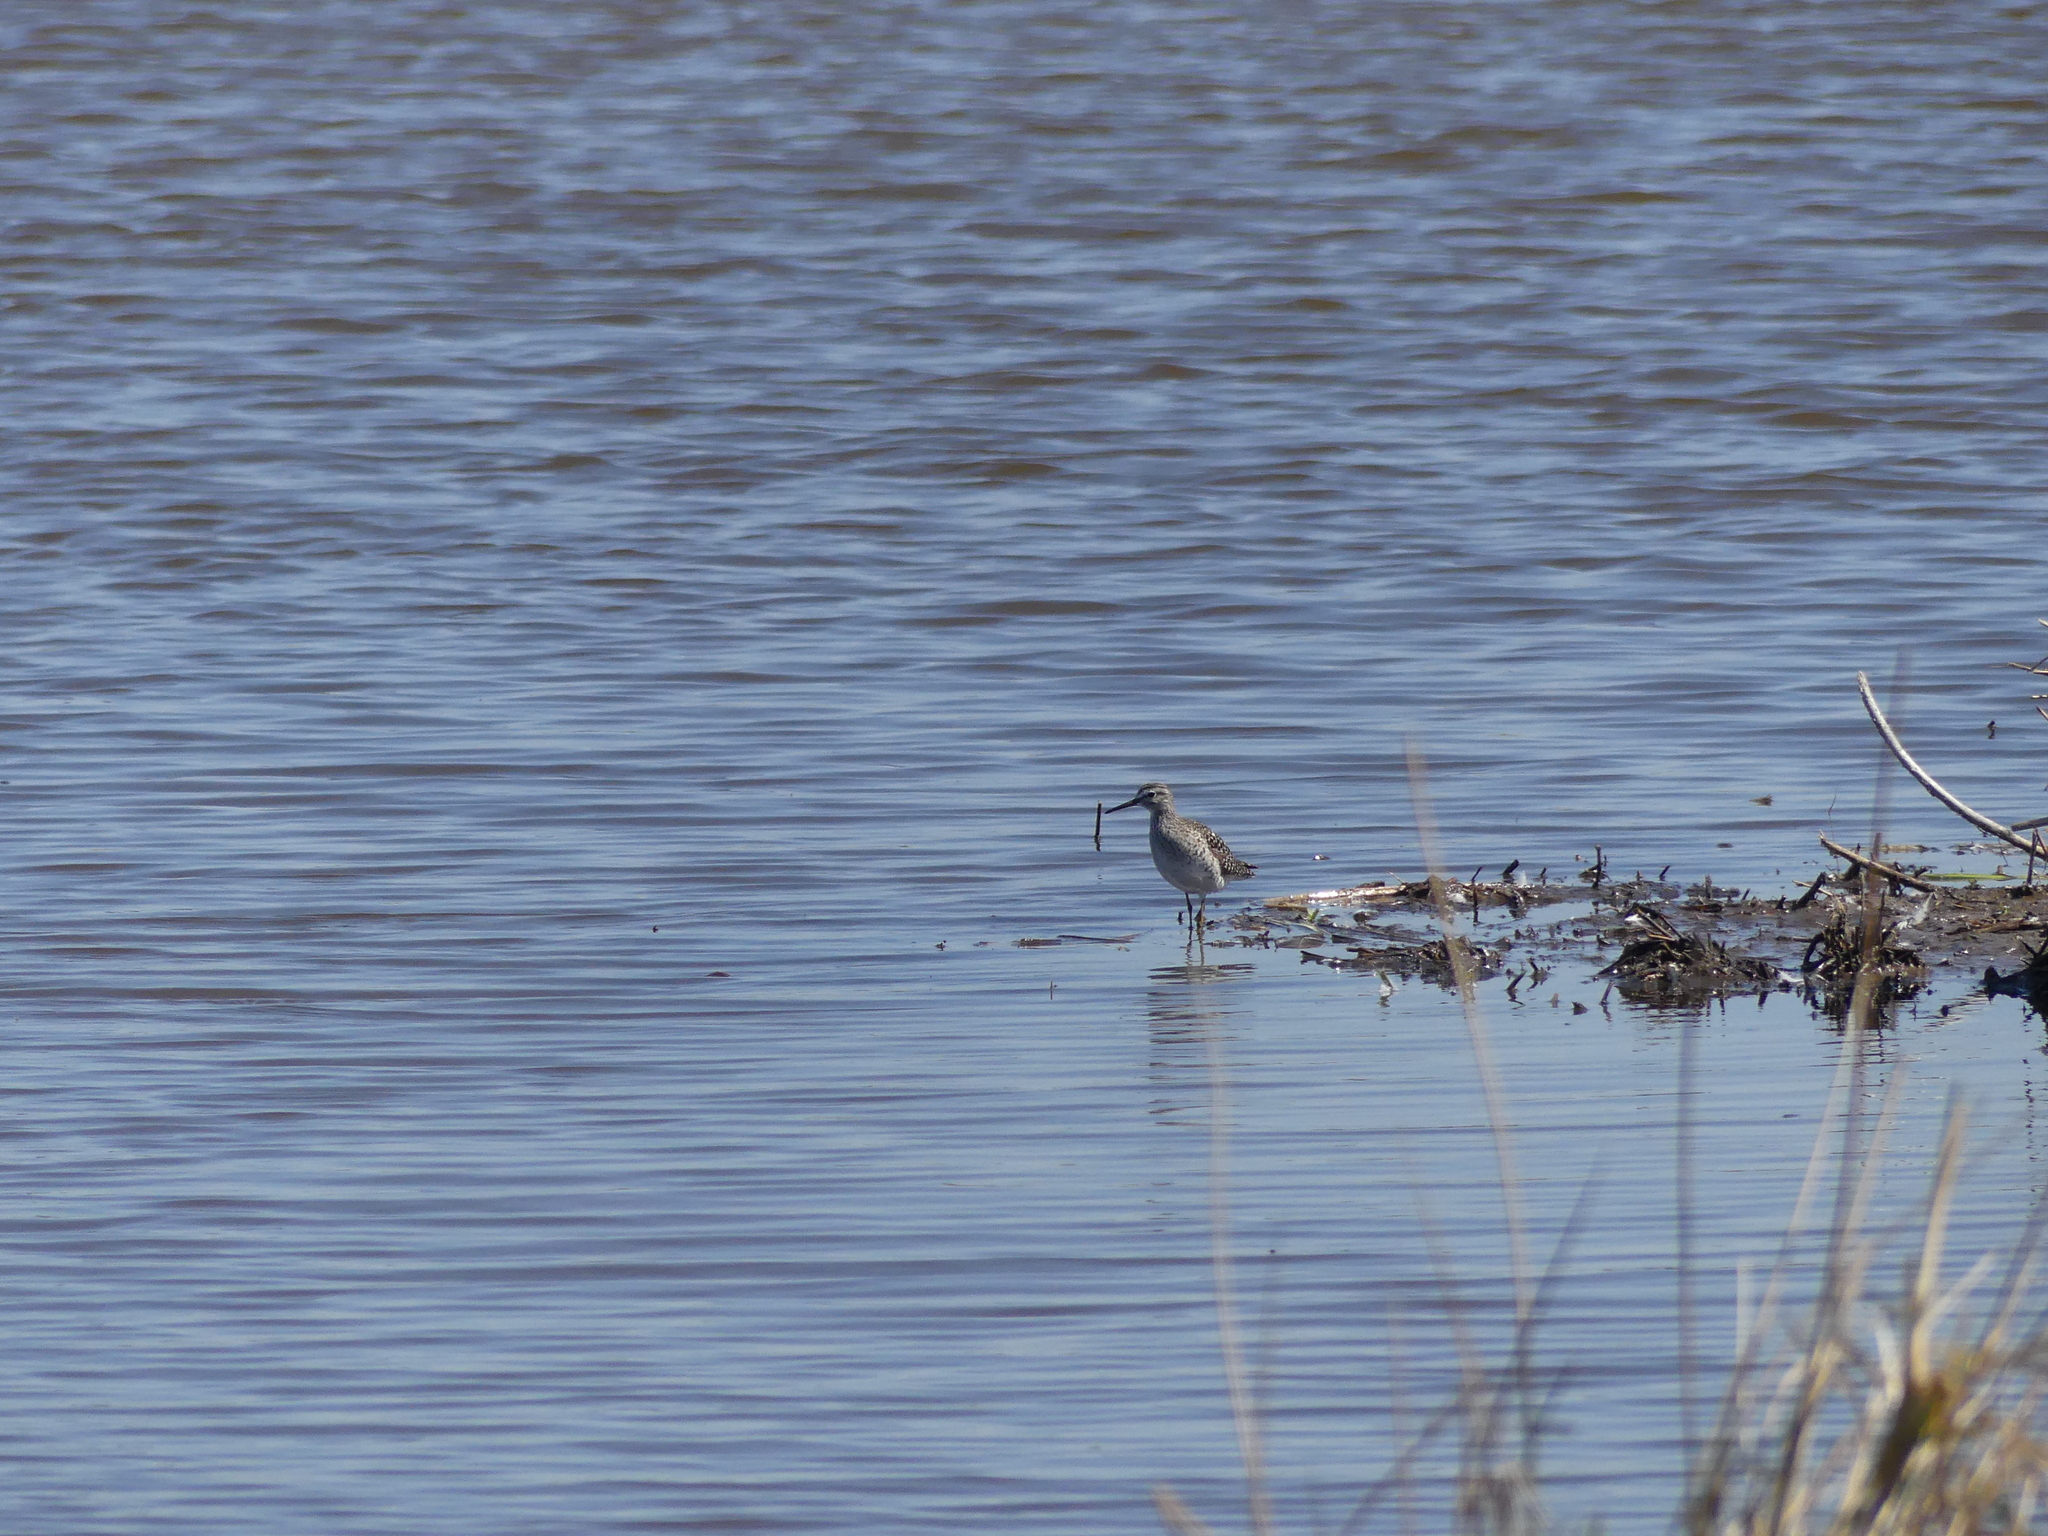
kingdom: Animalia
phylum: Chordata
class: Aves
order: Charadriiformes
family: Scolopacidae
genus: Tringa
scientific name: Tringa glareola
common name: Wood sandpiper
